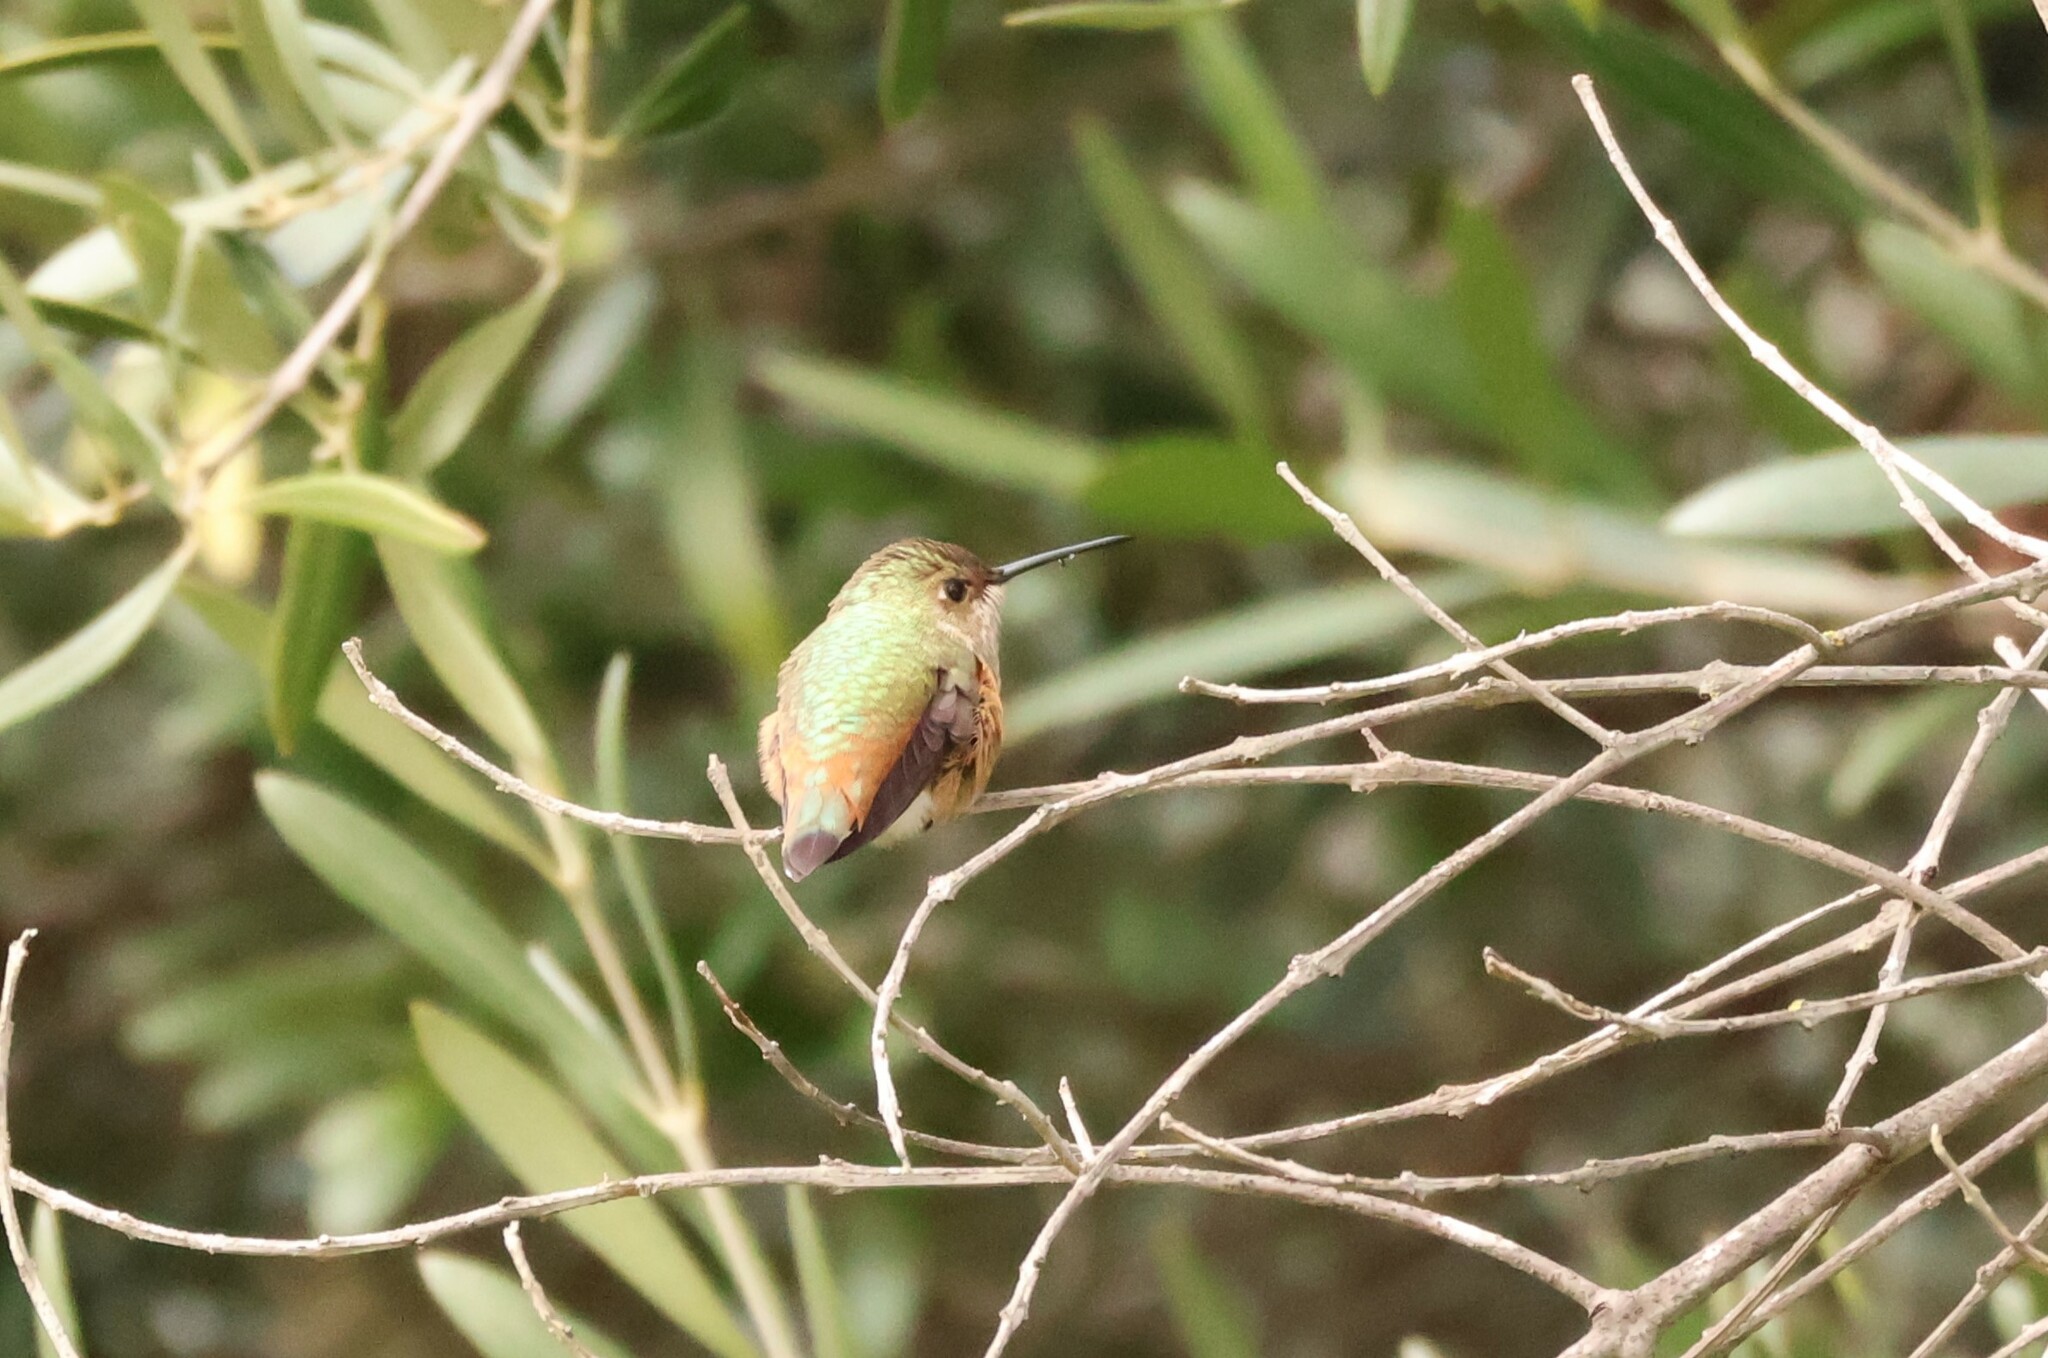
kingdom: Animalia
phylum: Chordata
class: Aves
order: Apodiformes
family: Trochilidae
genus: Selasphorus
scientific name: Selasphorus sasin
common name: Allen's hummingbird
